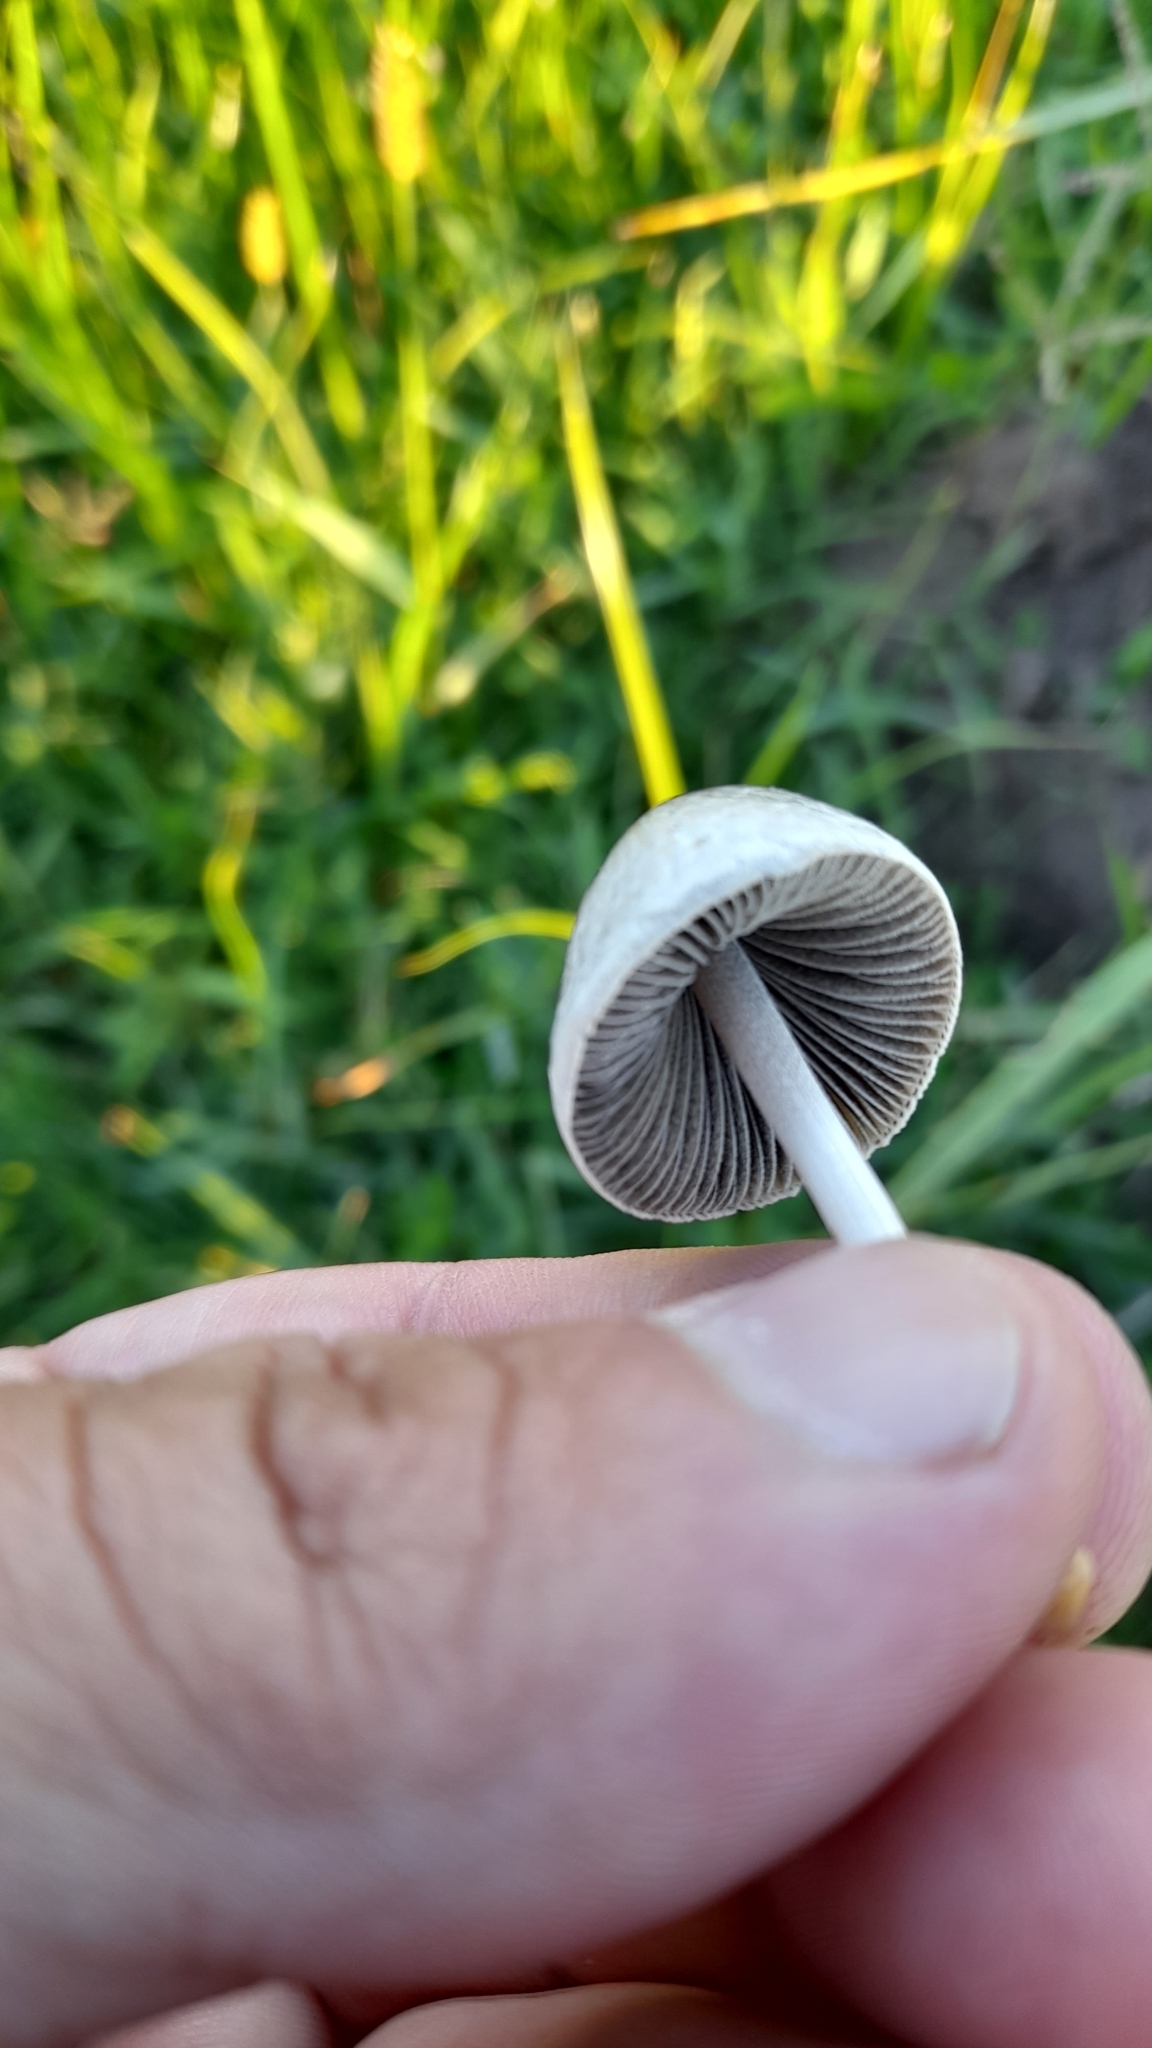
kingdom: Fungi
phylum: Basidiomycota
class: Agaricomycetes
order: Agaricales
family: Bolbitiaceae
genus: Panaeolus
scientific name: Panaeolus antillarum
